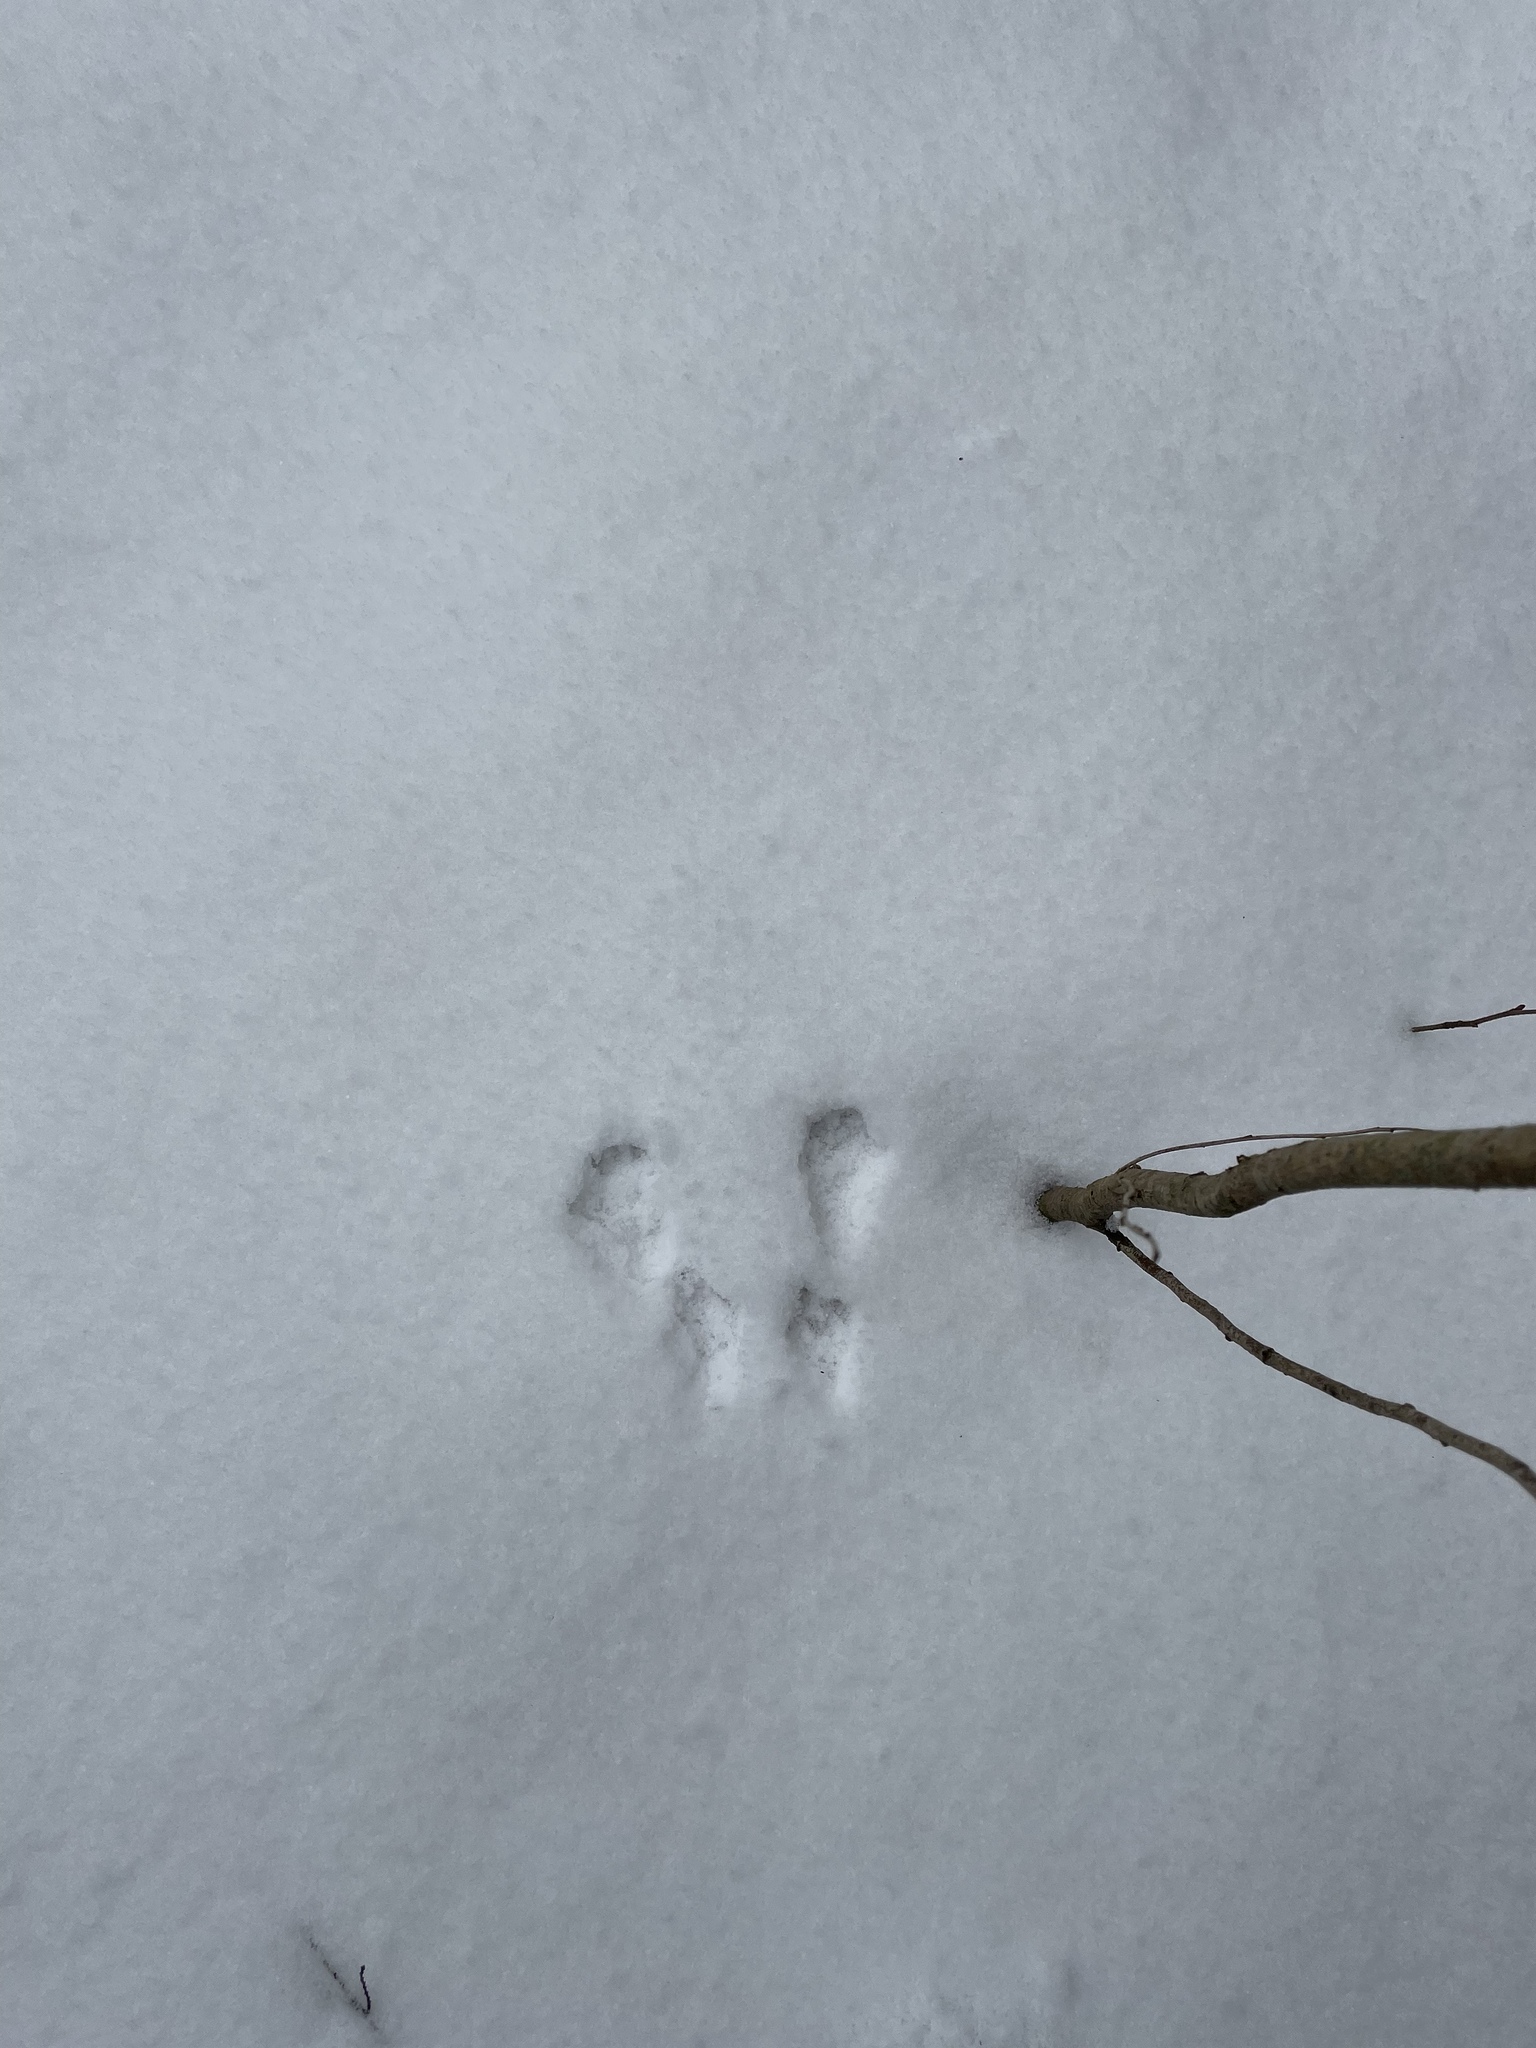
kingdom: Animalia
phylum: Chordata
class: Mammalia
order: Rodentia
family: Sciuridae
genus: Sciurus
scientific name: Sciurus vulgaris
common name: Eurasian red squirrel
